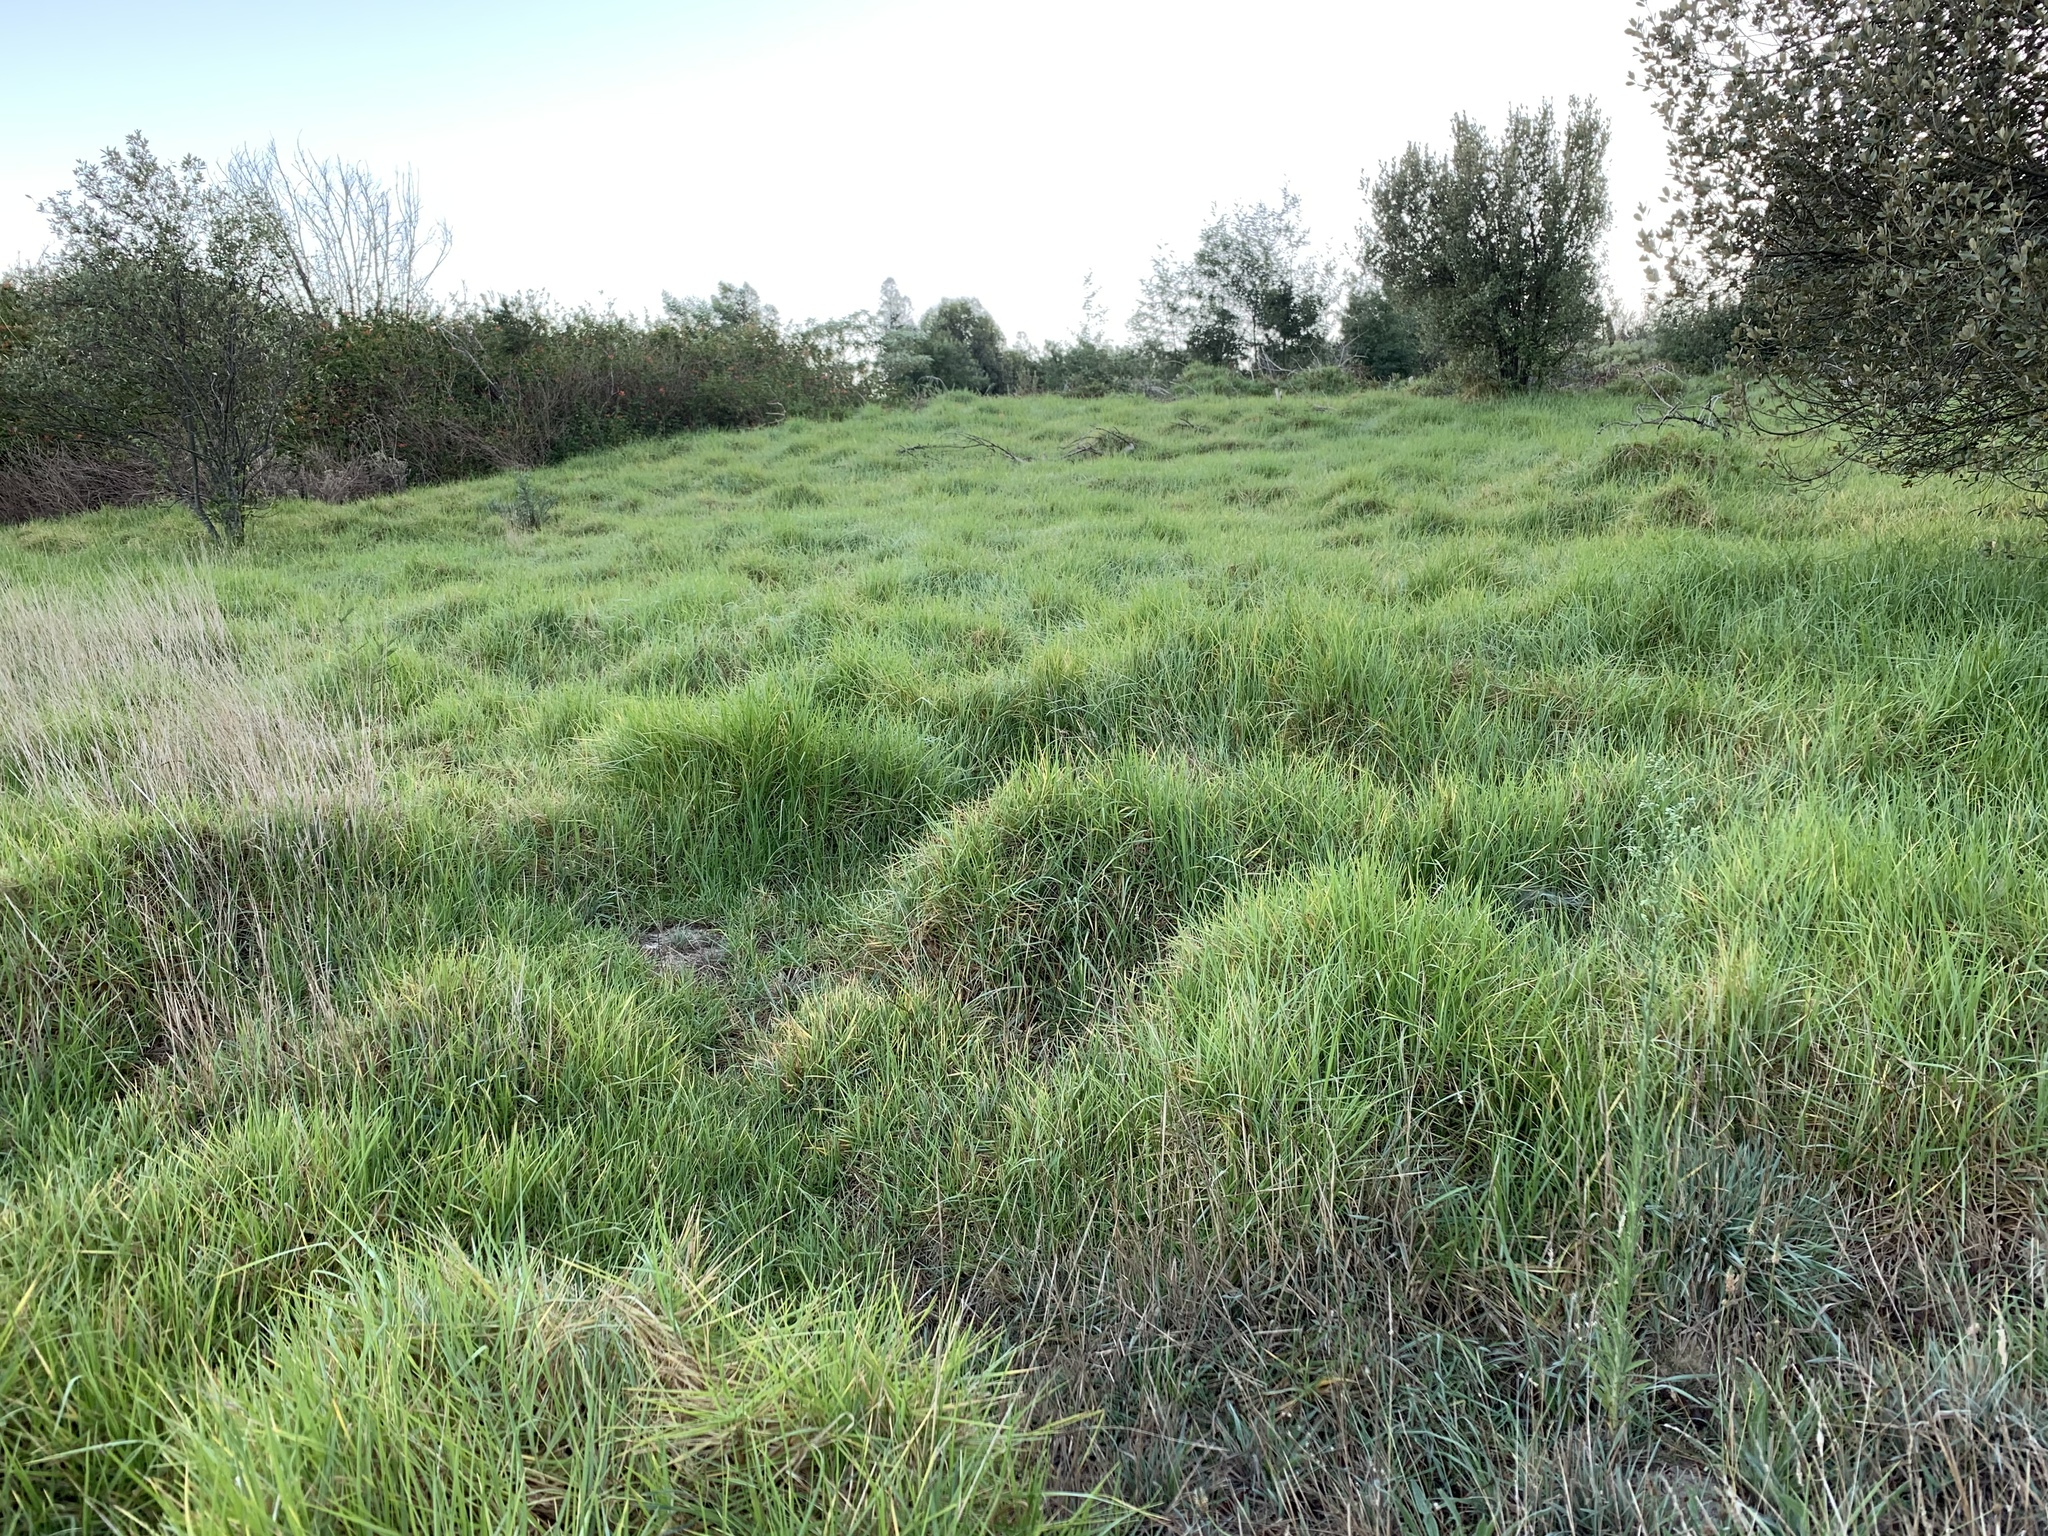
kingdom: Plantae
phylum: Tracheophyta
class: Liliopsida
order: Poales
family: Poaceae
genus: Cenchrus
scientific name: Cenchrus clandestinus
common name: Kikuyugrass
